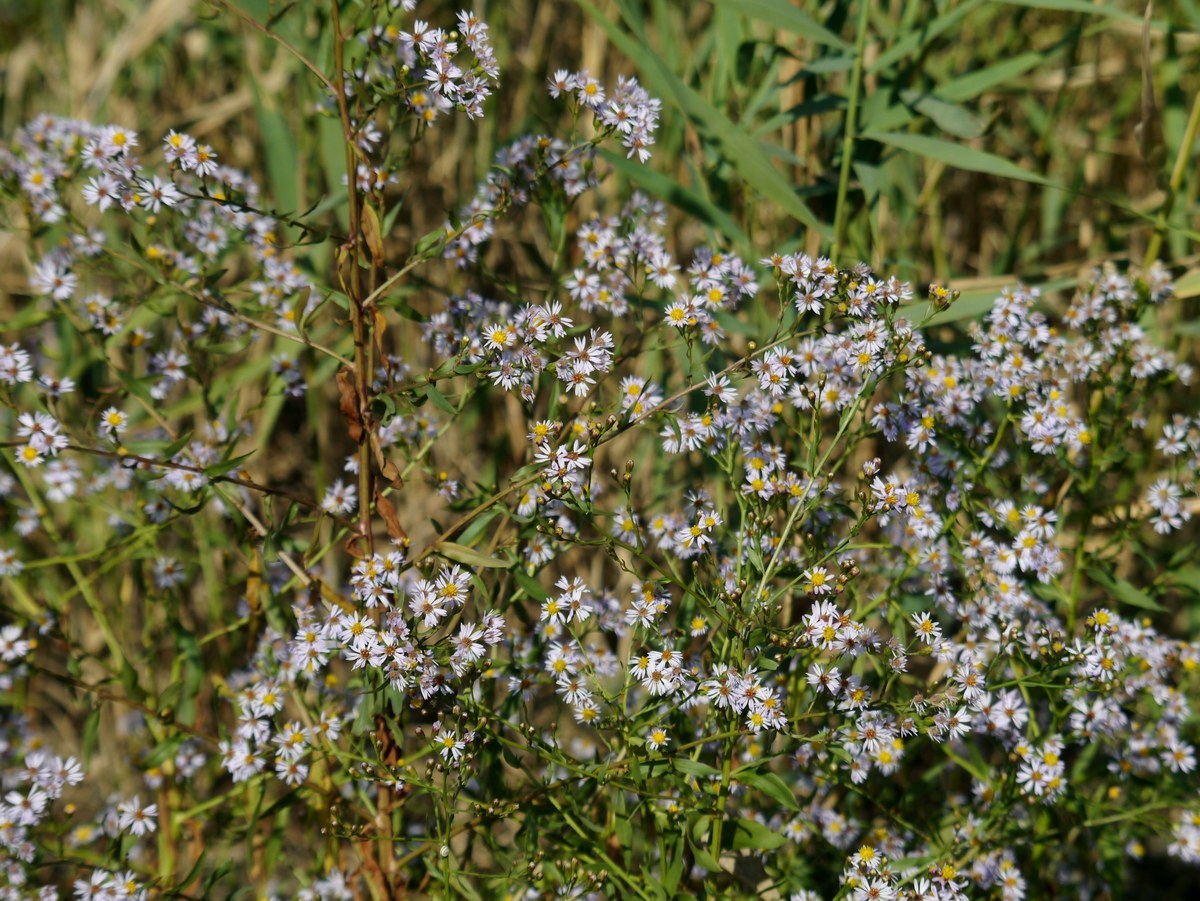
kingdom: Plantae
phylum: Tracheophyta
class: Magnoliopsida
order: Asterales
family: Asteraceae
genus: Tripolium
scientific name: Tripolium pannonicum
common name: Sea aster
